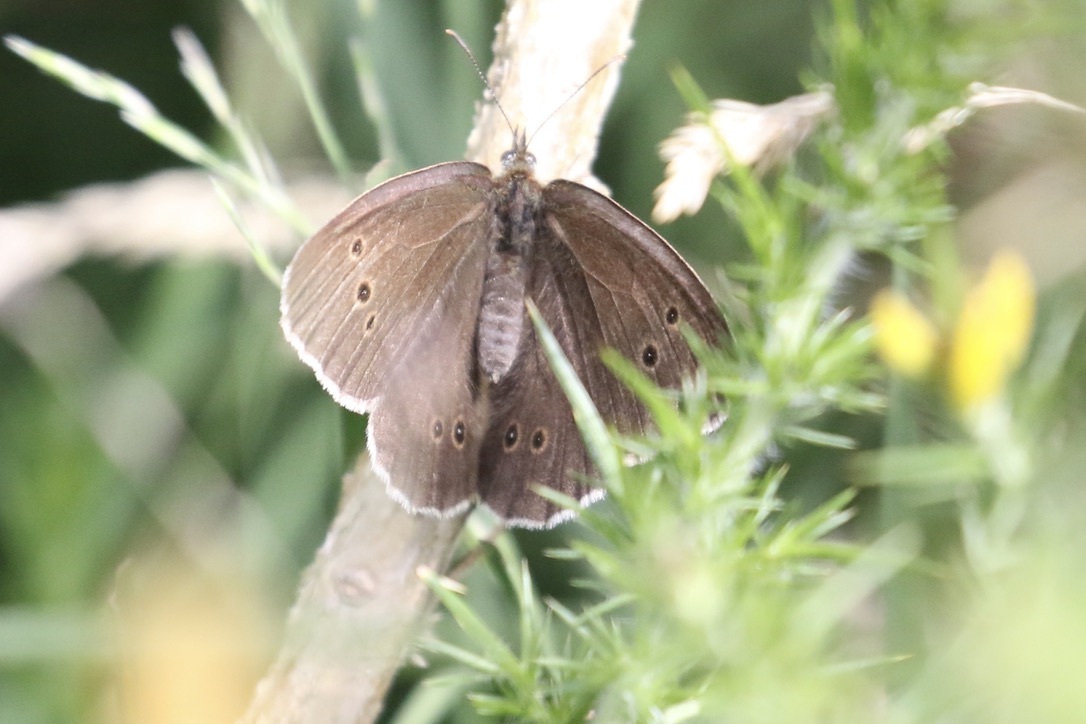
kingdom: Animalia
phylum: Arthropoda
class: Insecta
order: Lepidoptera
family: Nymphalidae
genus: Aphantopus
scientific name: Aphantopus hyperantus
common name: Ringlet
